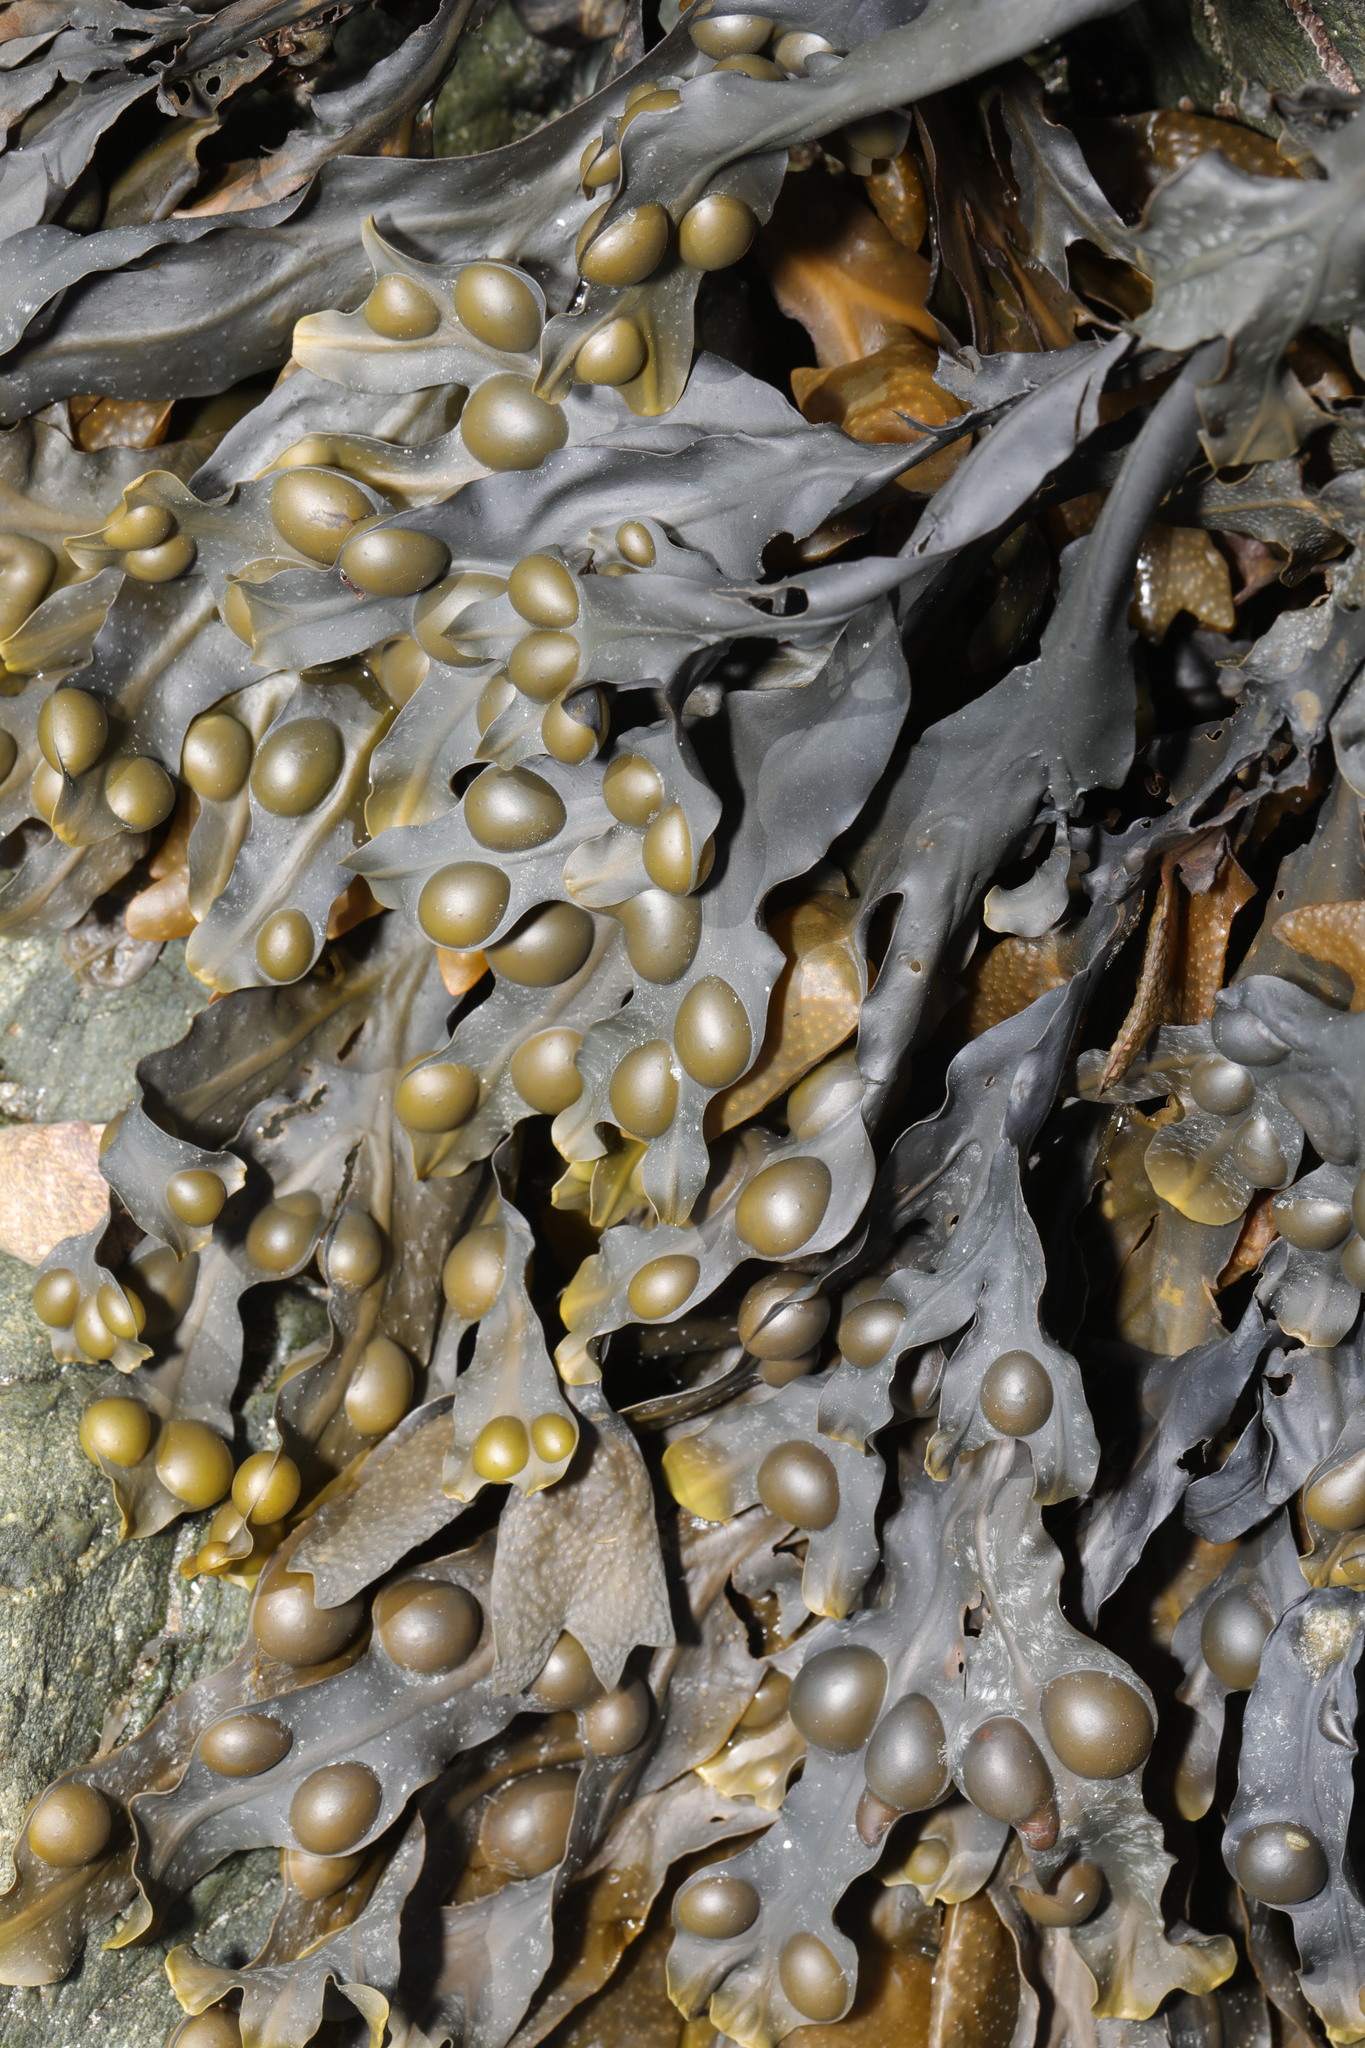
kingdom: Chromista
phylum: Ochrophyta
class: Phaeophyceae
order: Fucales
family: Fucaceae
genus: Fucus
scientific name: Fucus vesiculosus
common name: Bladder wrack
